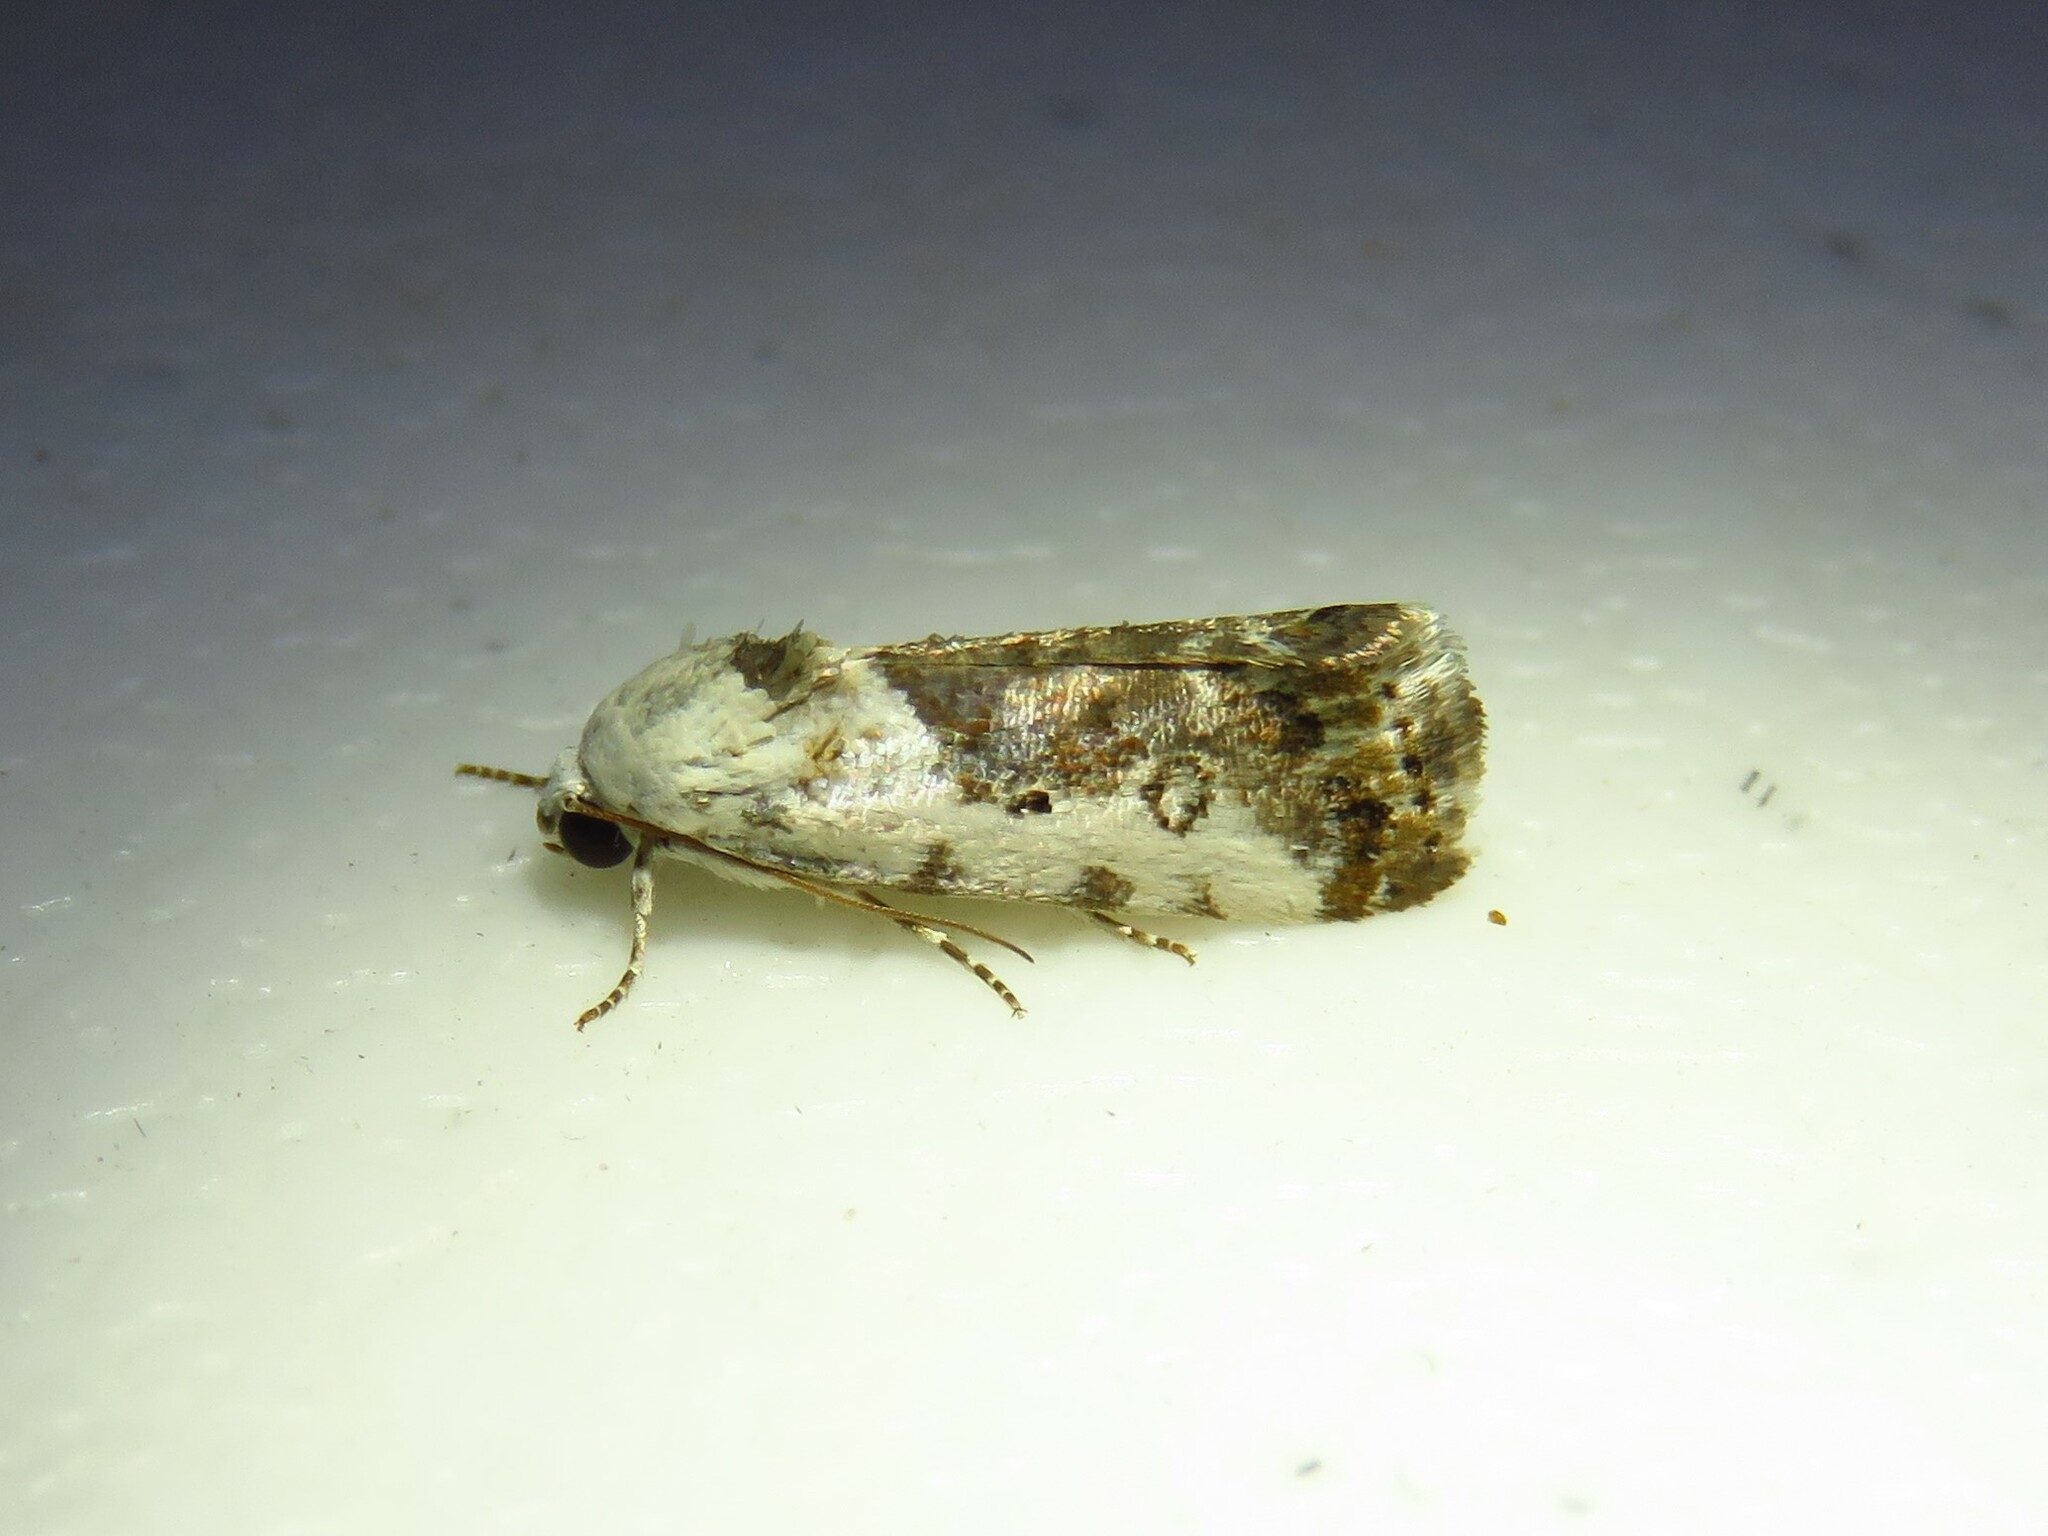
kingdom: Animalia
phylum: Arthropoda
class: Insecta
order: Lepidoptera
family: Noctuidae
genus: Acontia
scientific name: Acontia phecolisca
